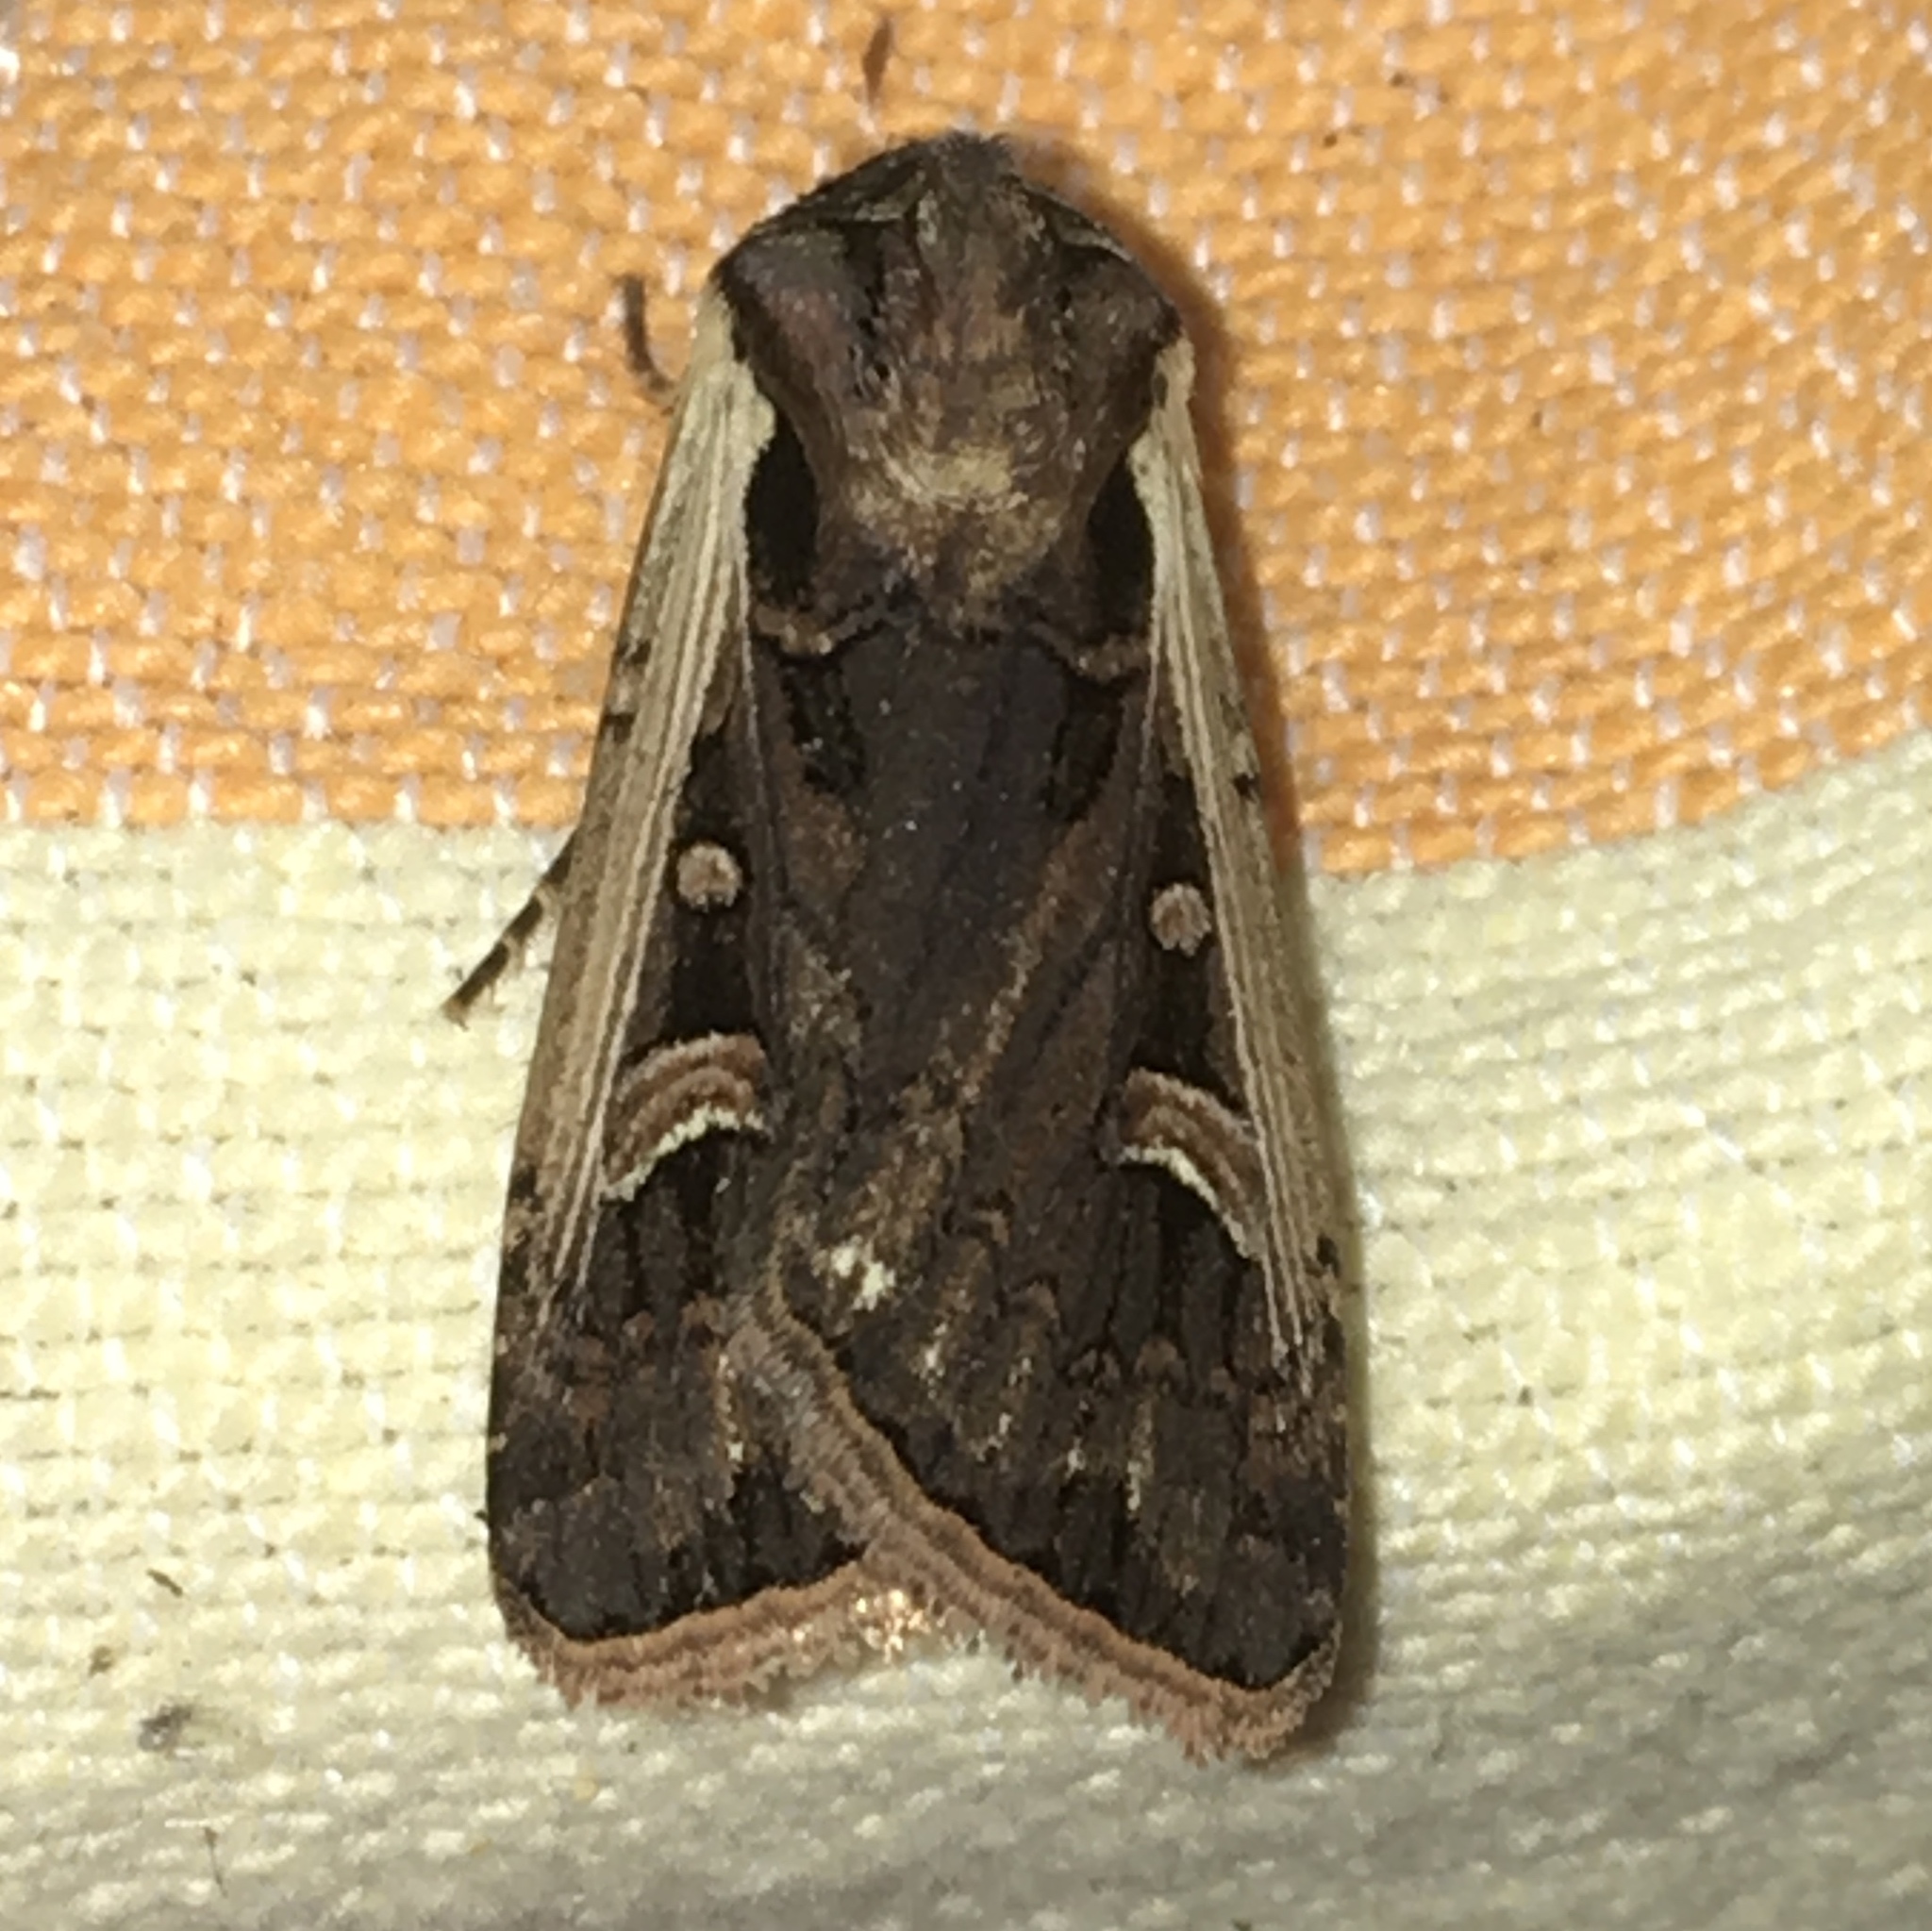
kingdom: Animalia
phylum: Arthropoda
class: Insecta
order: Lepidoptera
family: Noctuidae
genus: Striacosta
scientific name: Striacosta albicosta
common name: Western bean cutworm moth
